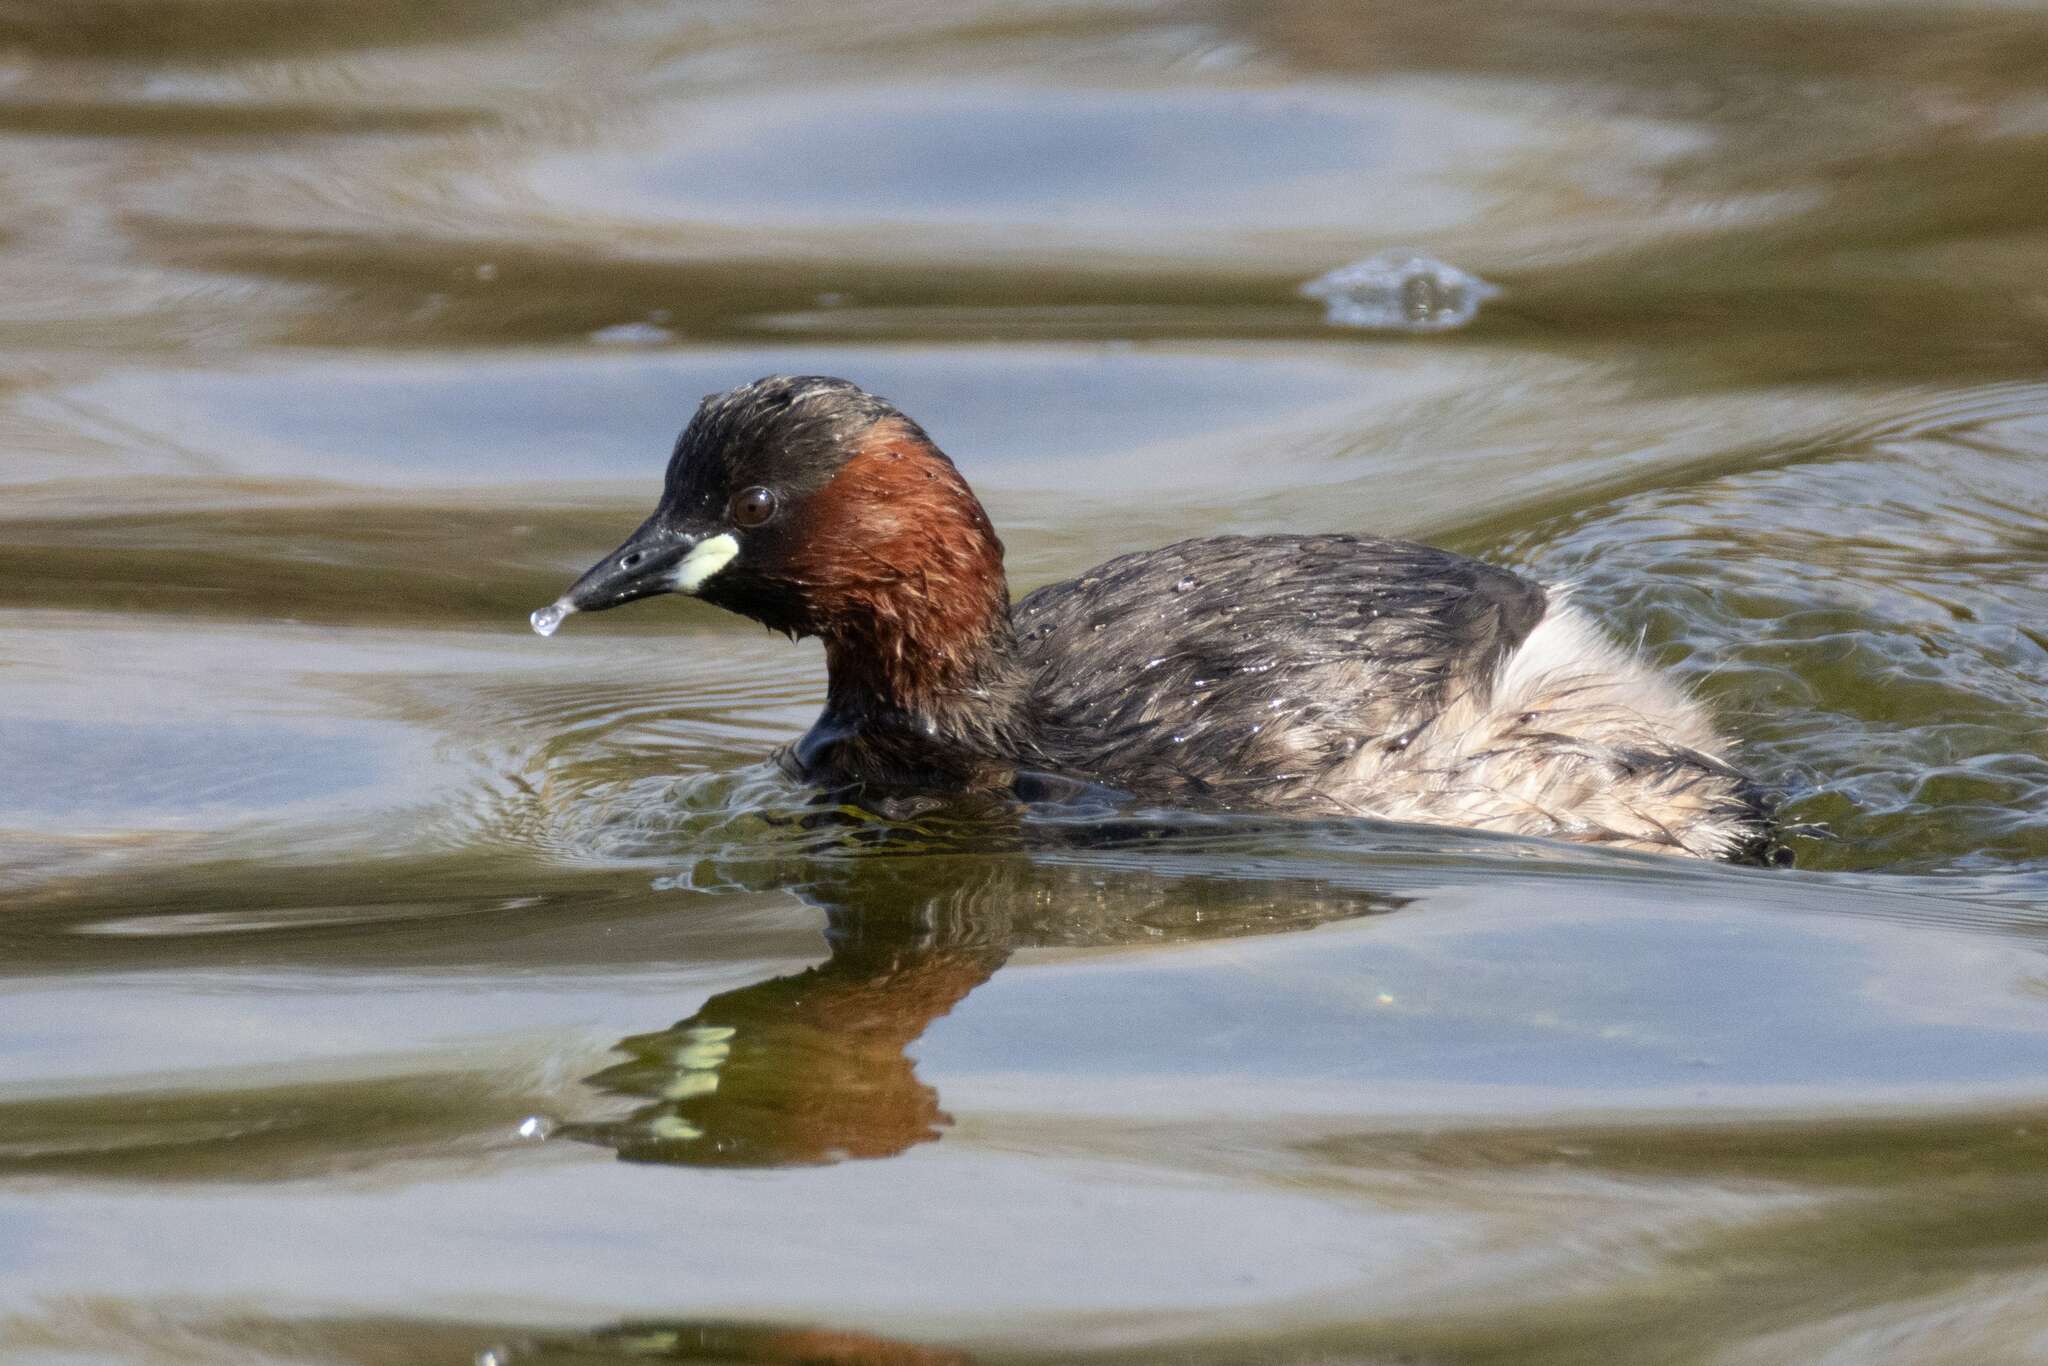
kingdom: Animalia
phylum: Chordata
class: Aves
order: Podicipediformes
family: Podicipedidae
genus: Tachybaptus
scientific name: Tachybaptus ruficollis
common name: Little grebe
